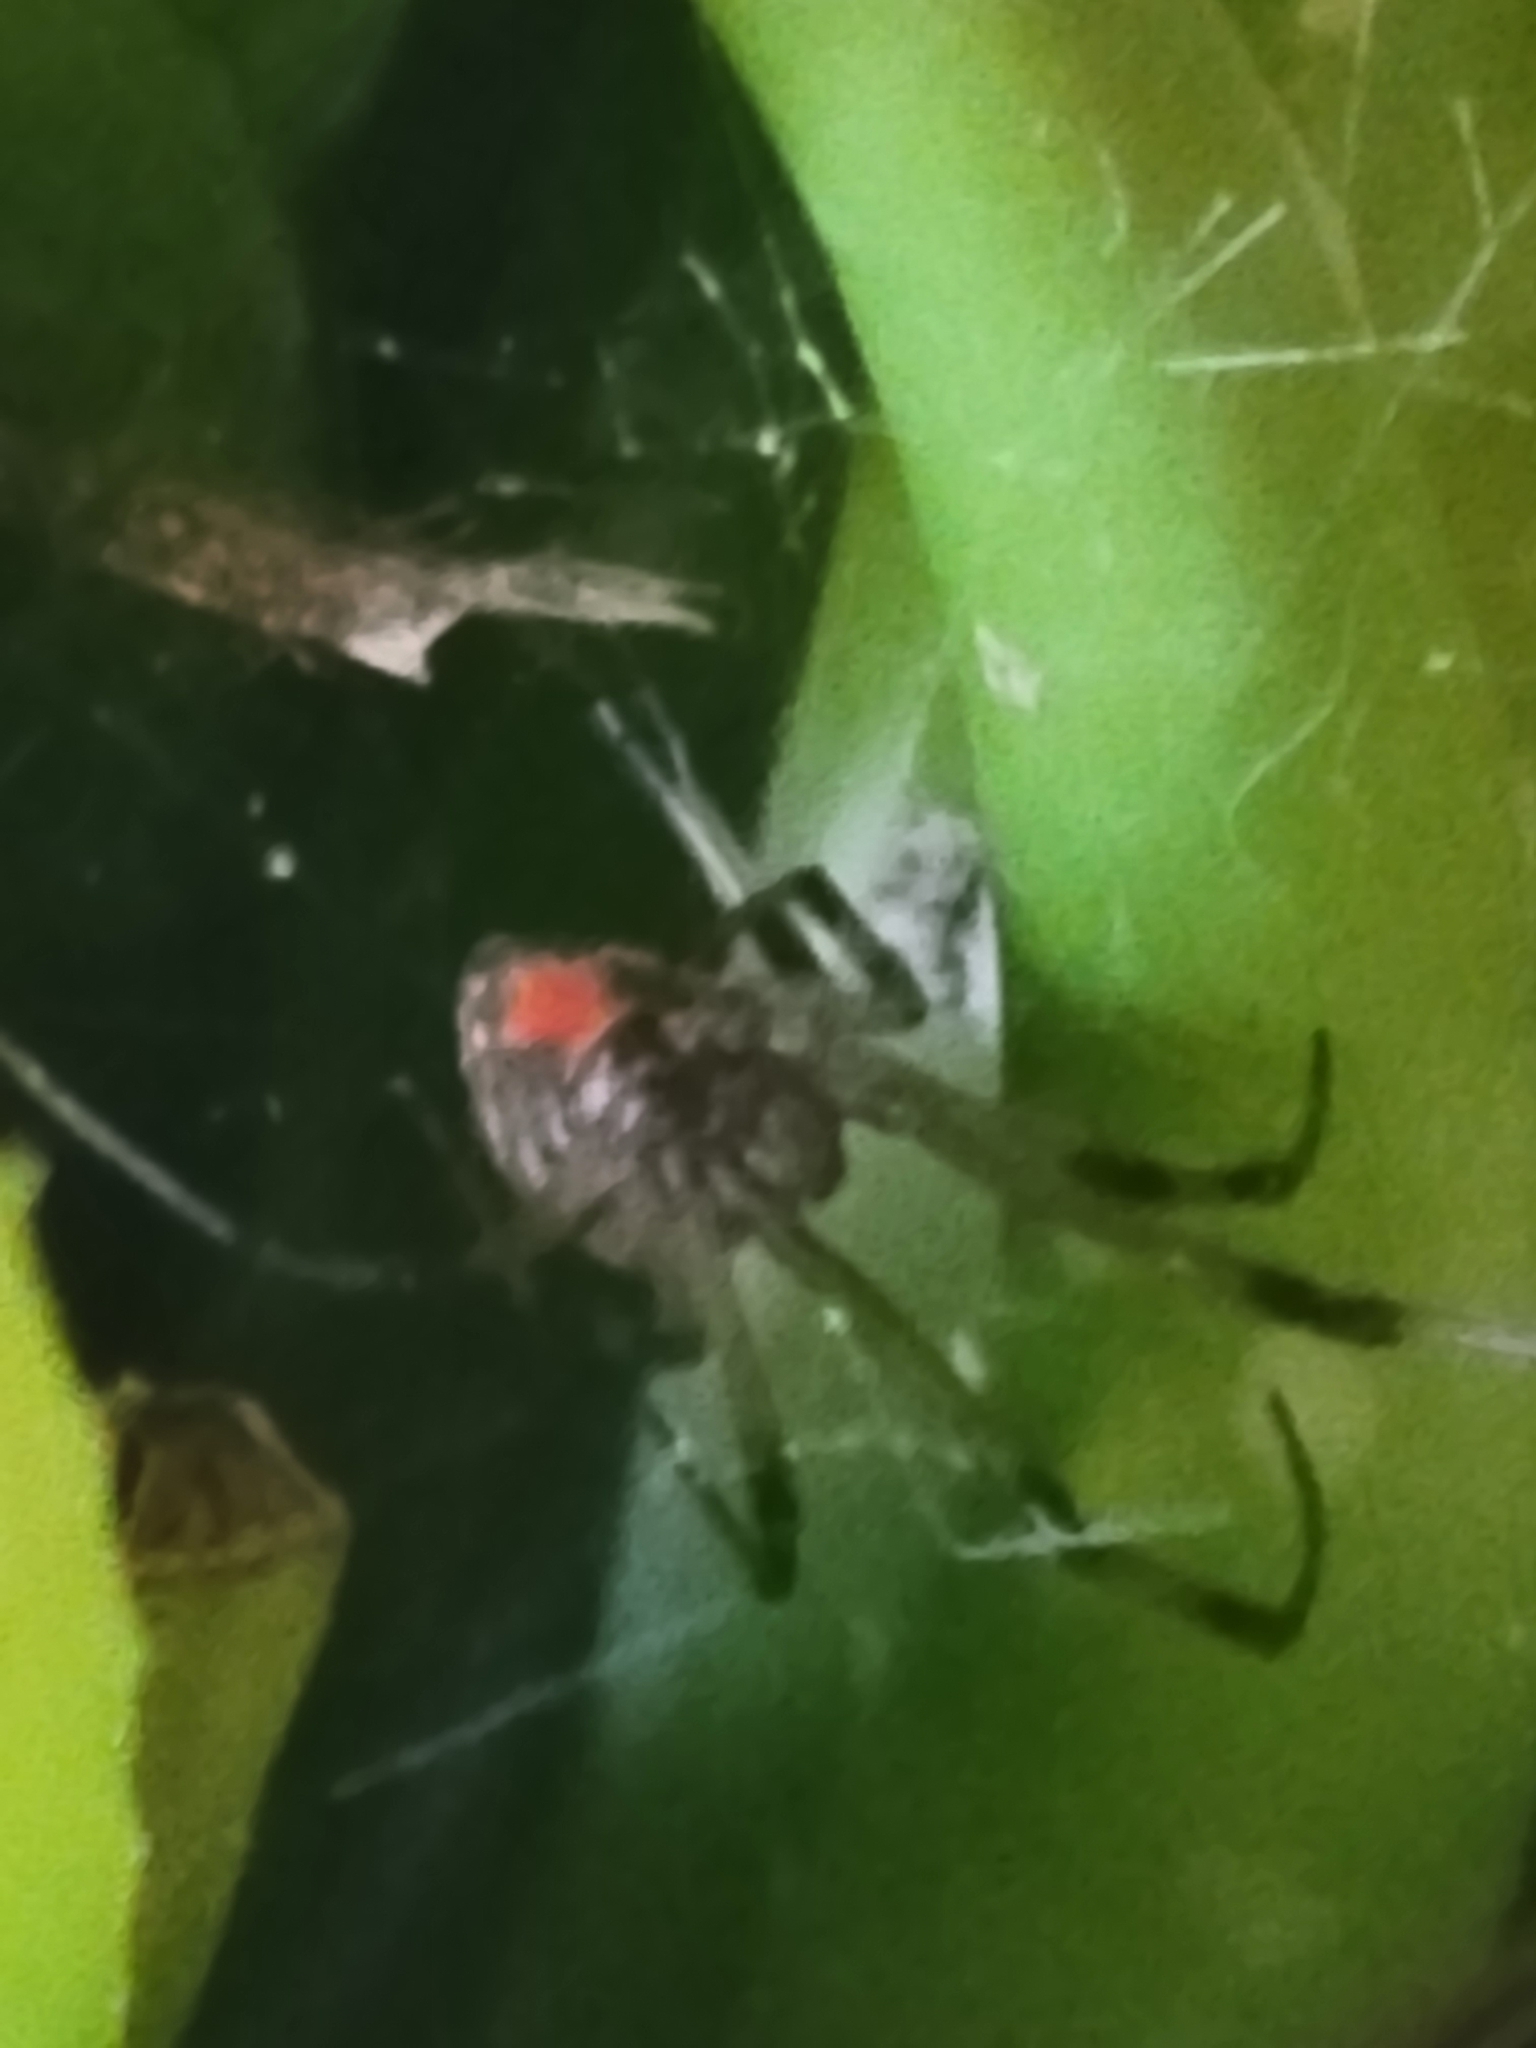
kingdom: Animalia
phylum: Arthropoda
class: Arachnida
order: Araneae
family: Theridiidae
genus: Latrodectus
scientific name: Latrodectus geometricus
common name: Brown widow spider
